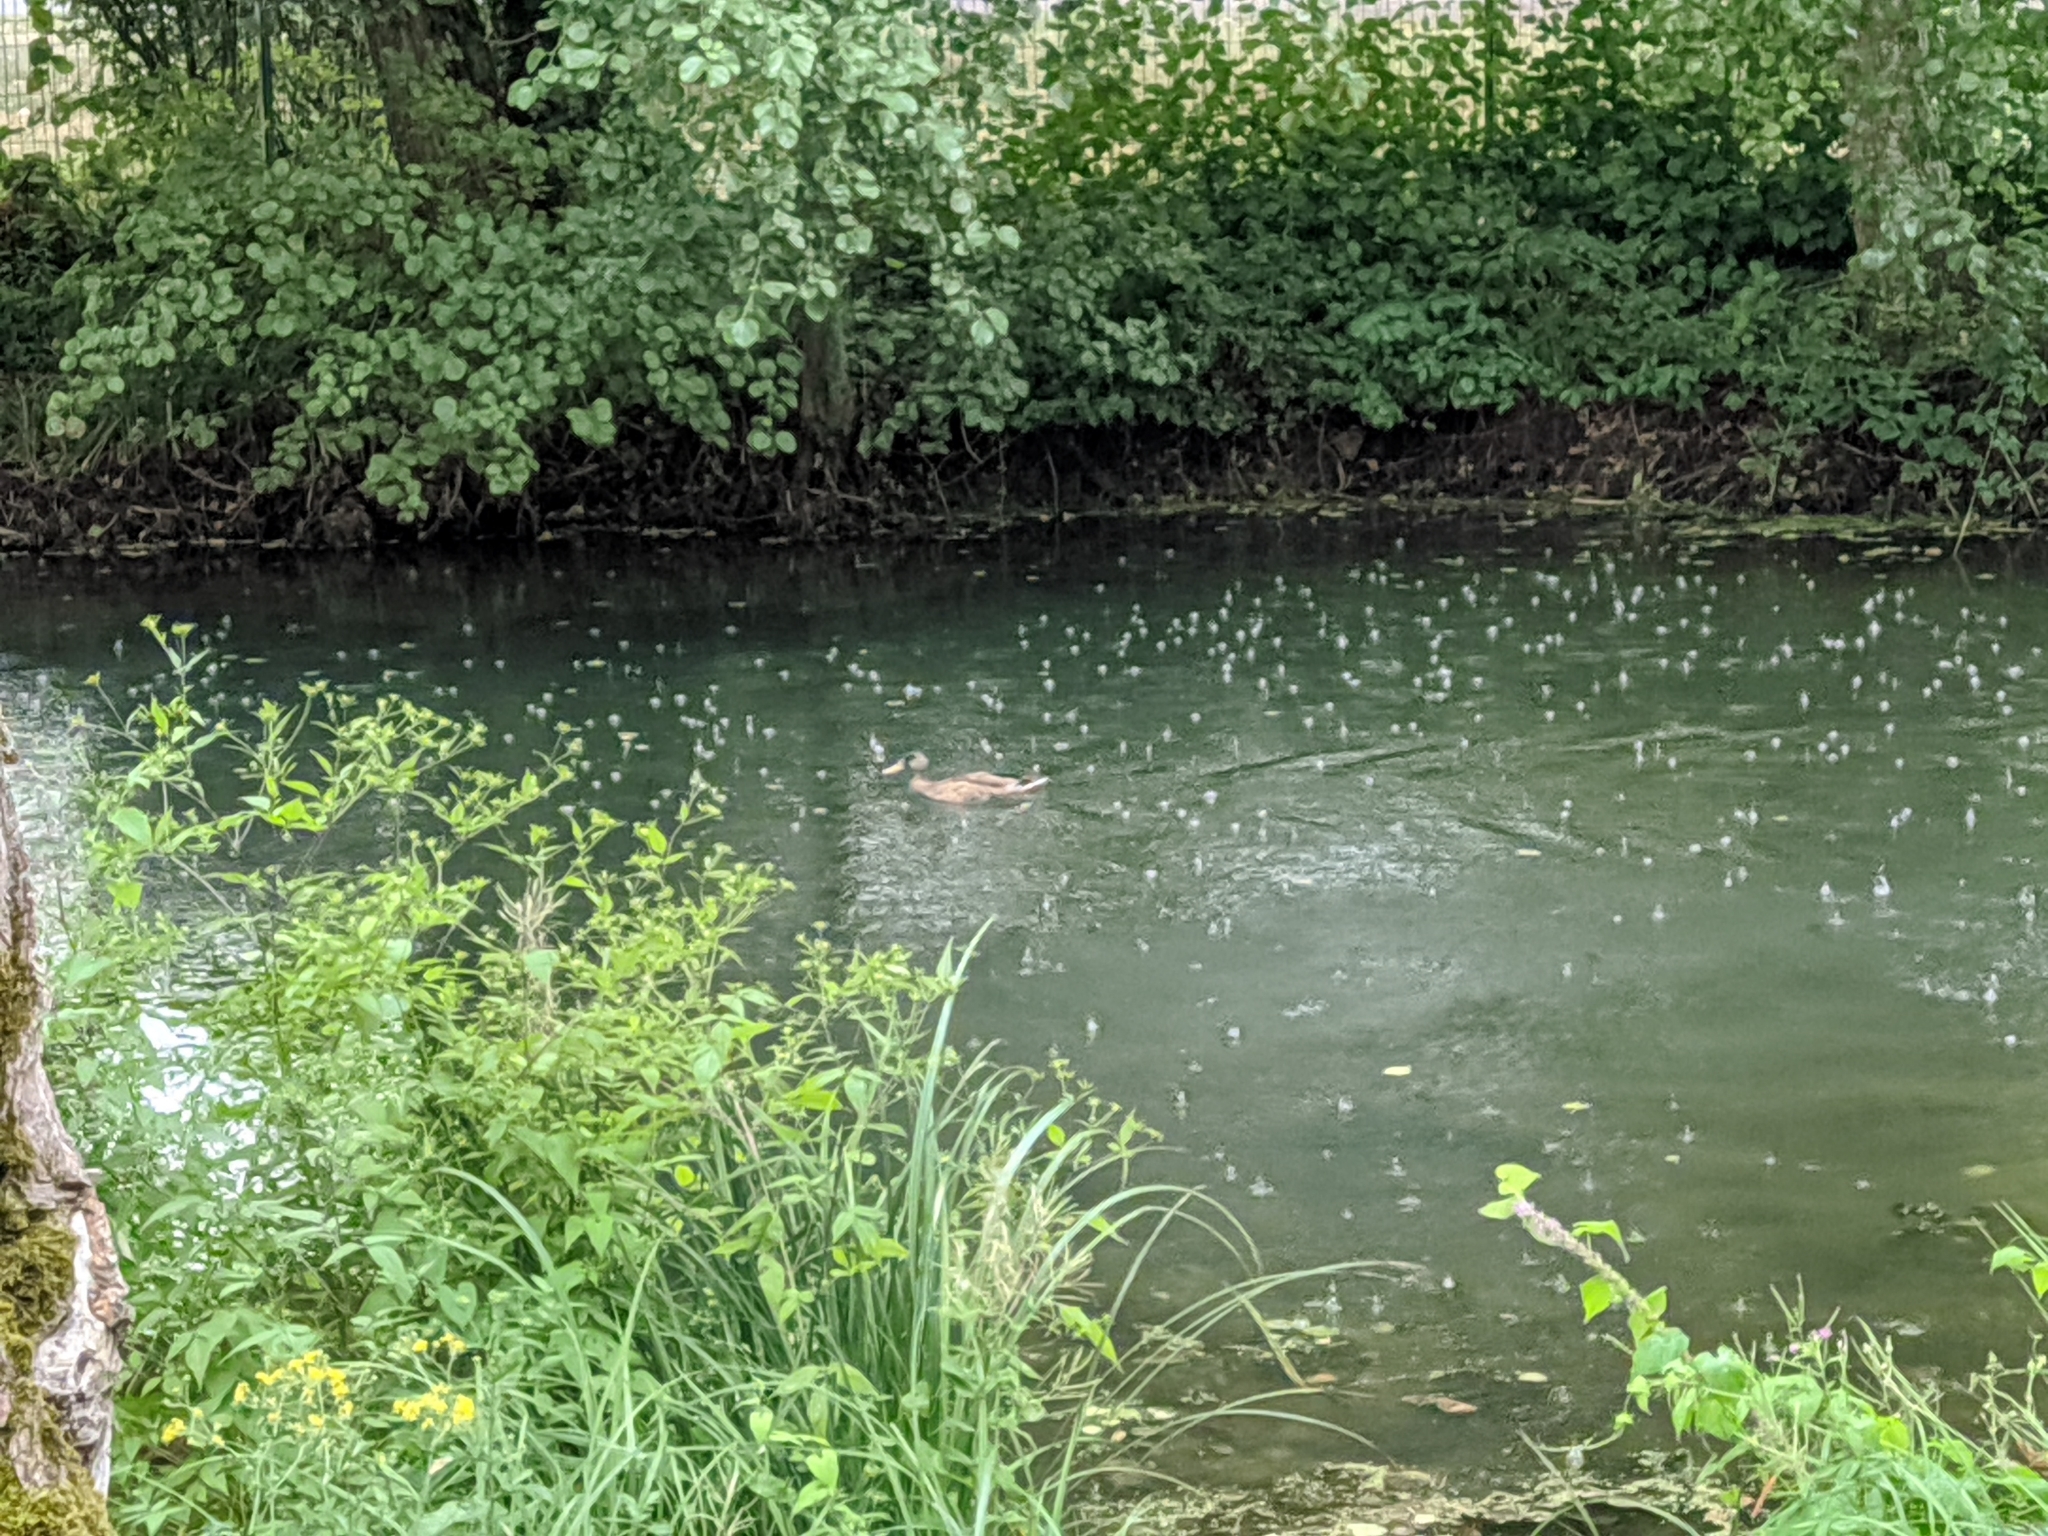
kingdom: Animalia
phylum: Chordata
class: Aves
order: Anseriformes
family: Anatidae
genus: Anas
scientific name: Anas platyrhynchos
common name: Mallard
